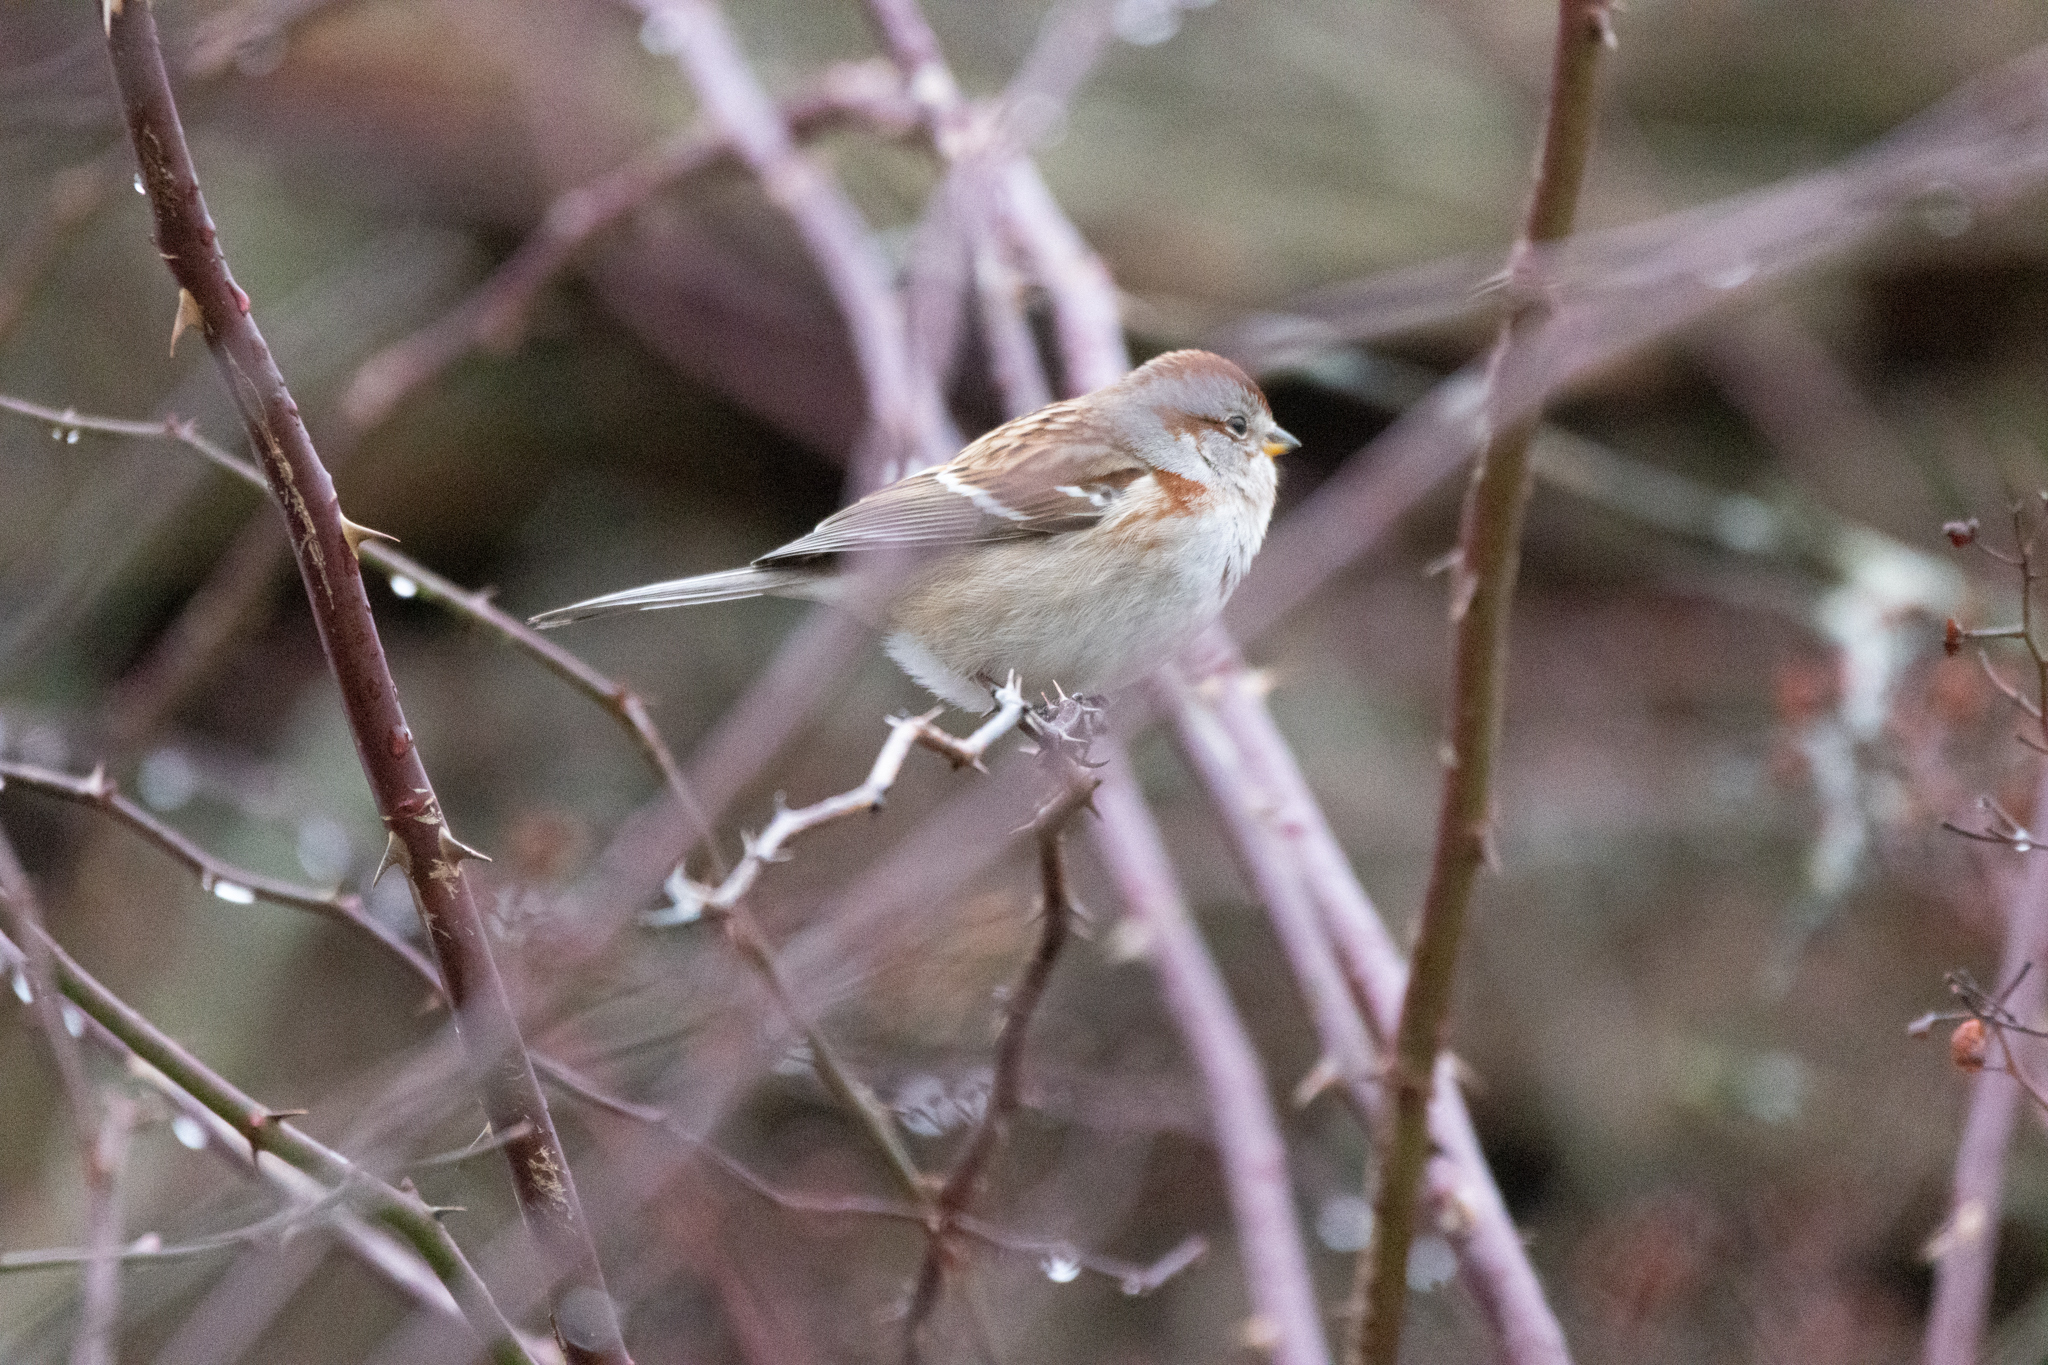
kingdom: Animalia
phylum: Chordata
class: Aves
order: Passeriformes
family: Passerellidae
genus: Spizelloides
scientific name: Spizelloides arborea
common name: American tree sparrow
